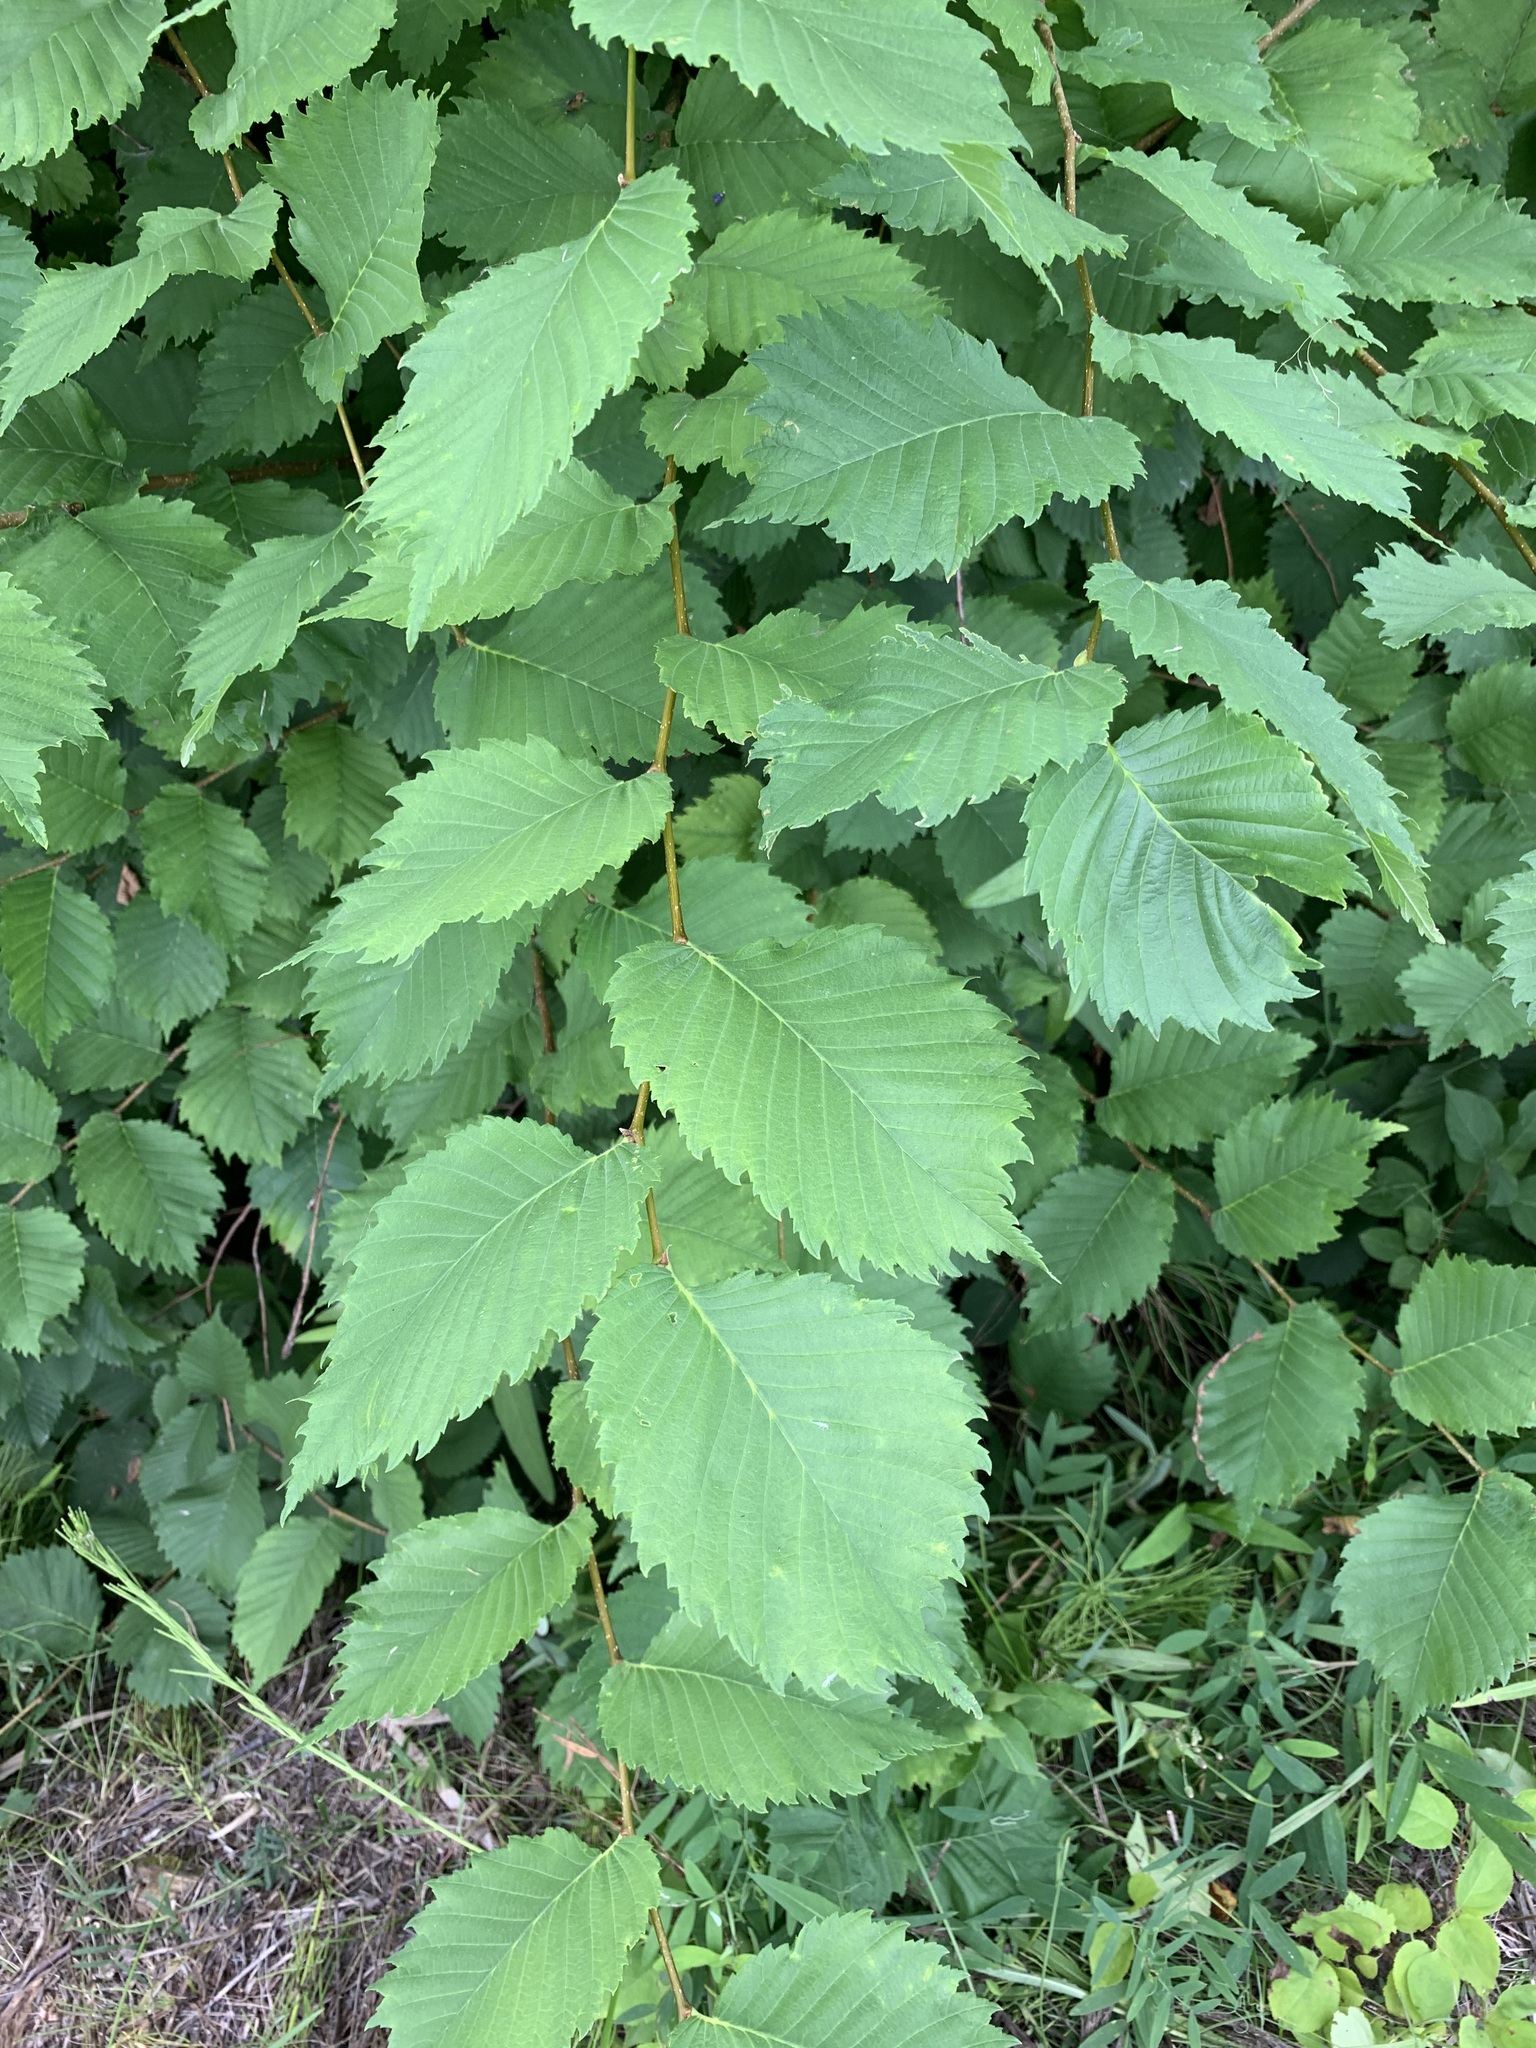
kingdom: Plantae
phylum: Tracheophyta
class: Magnoliopsida
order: Rosales
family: Ulmaceae
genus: Ulmus
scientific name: Ulmus laevis
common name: European white-elm
